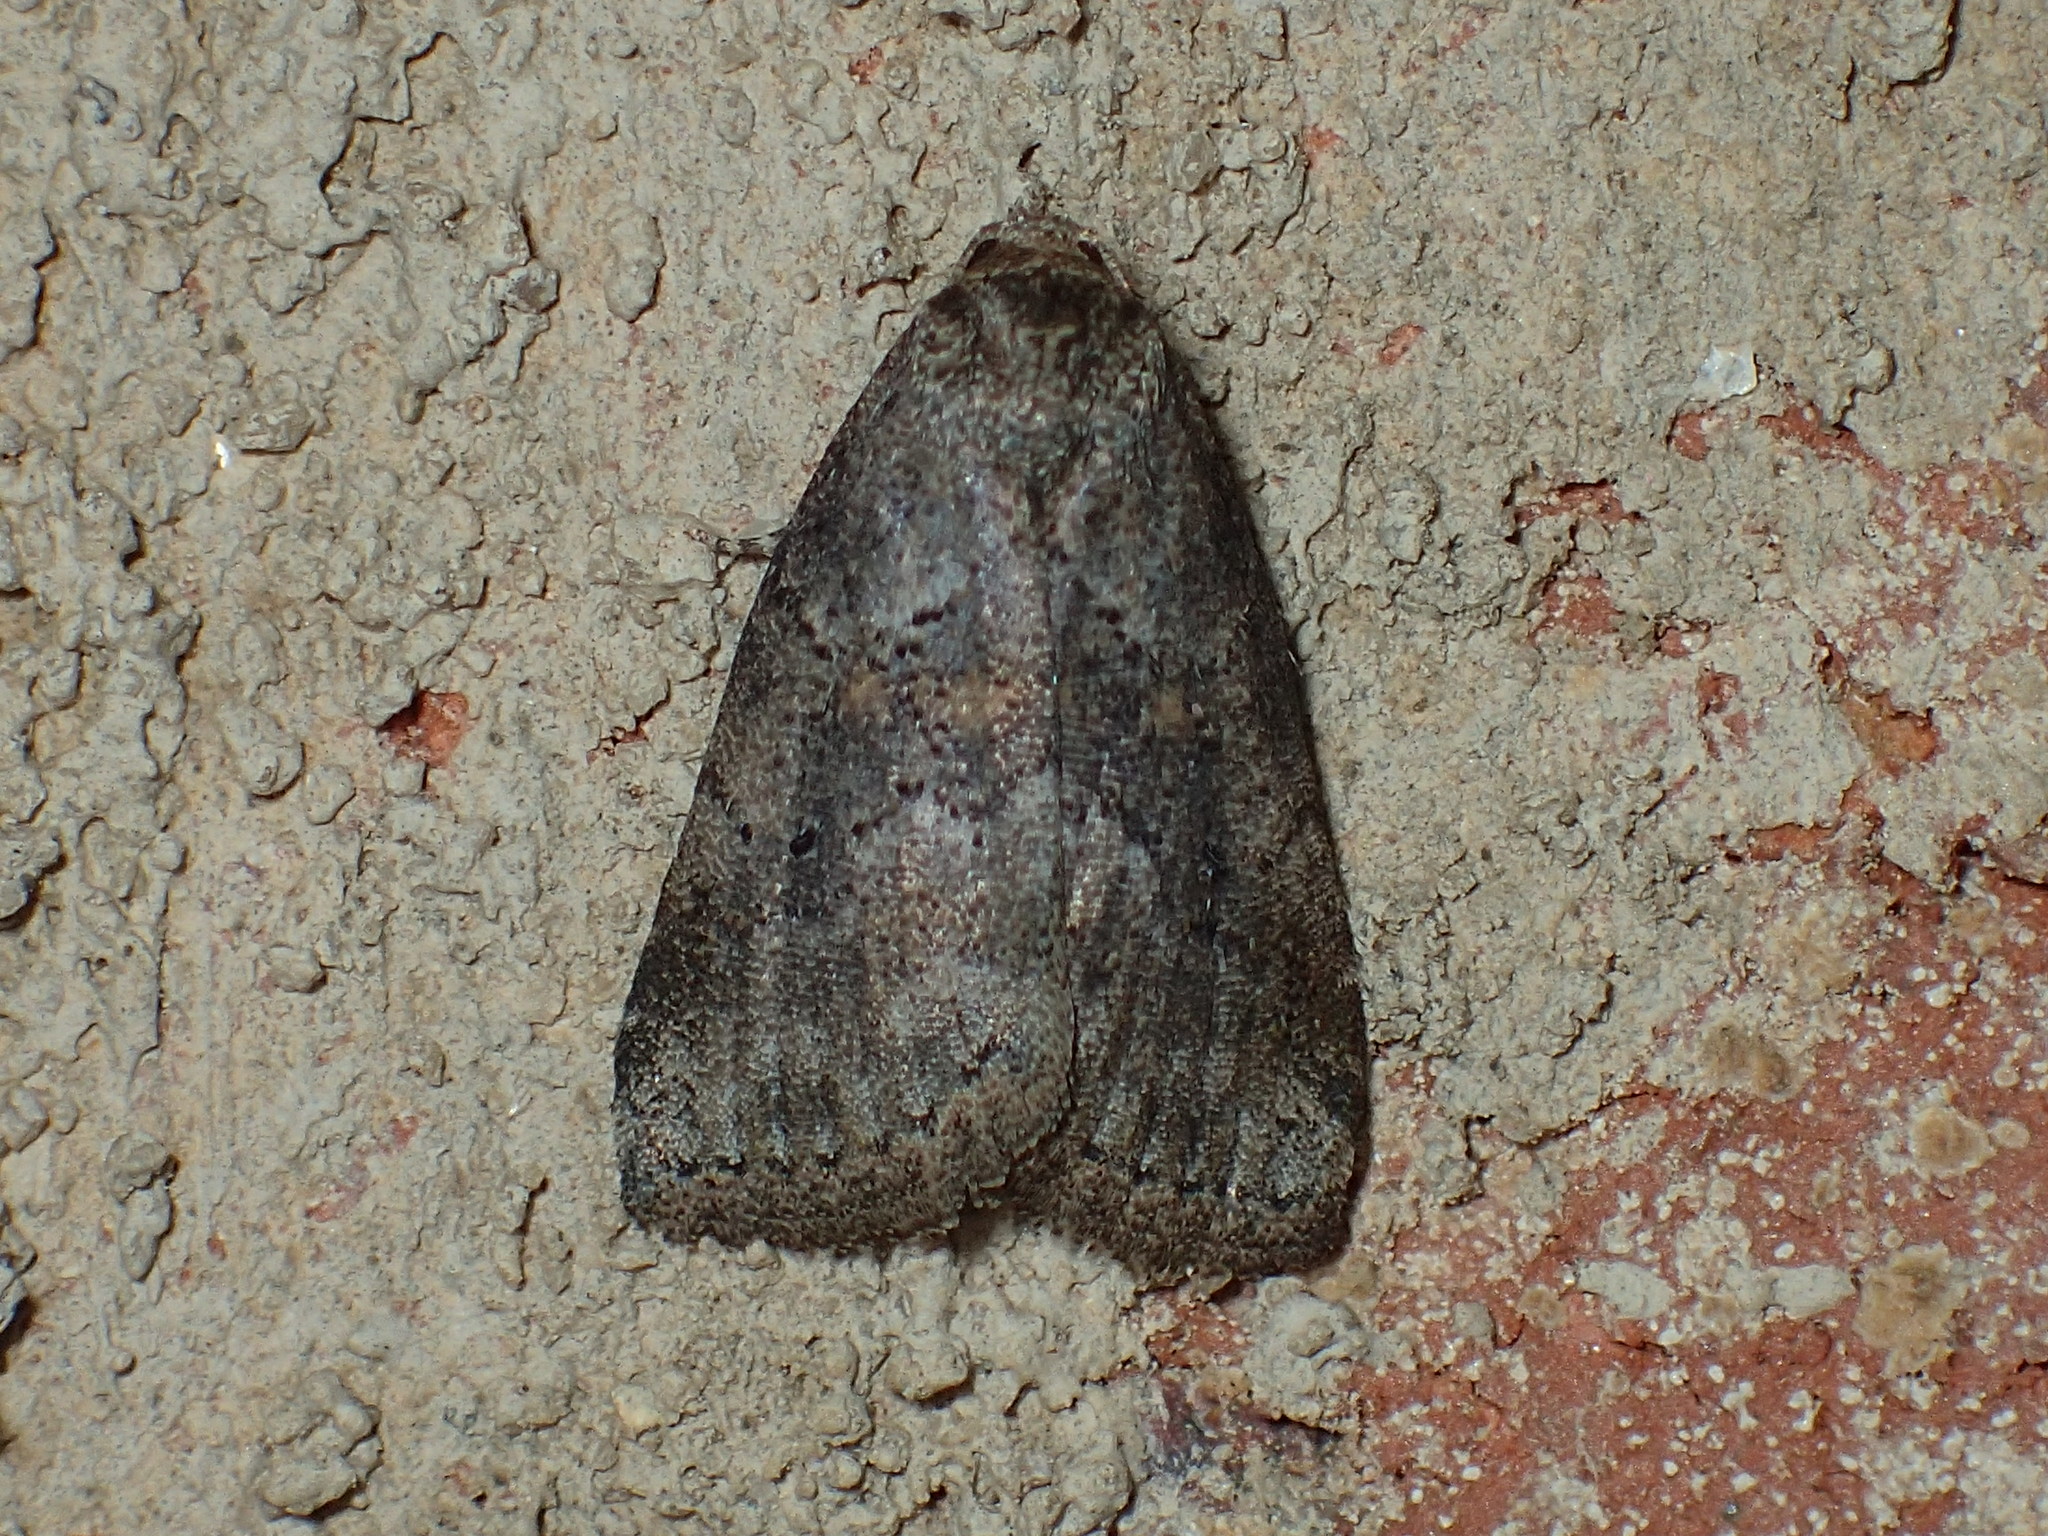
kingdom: Animalia
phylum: Arthropoda
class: Insecta
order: Lepidoptera
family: Erebidae
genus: Hyperstrotia
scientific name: Hyperstrotia nana
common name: White-lined graylet
